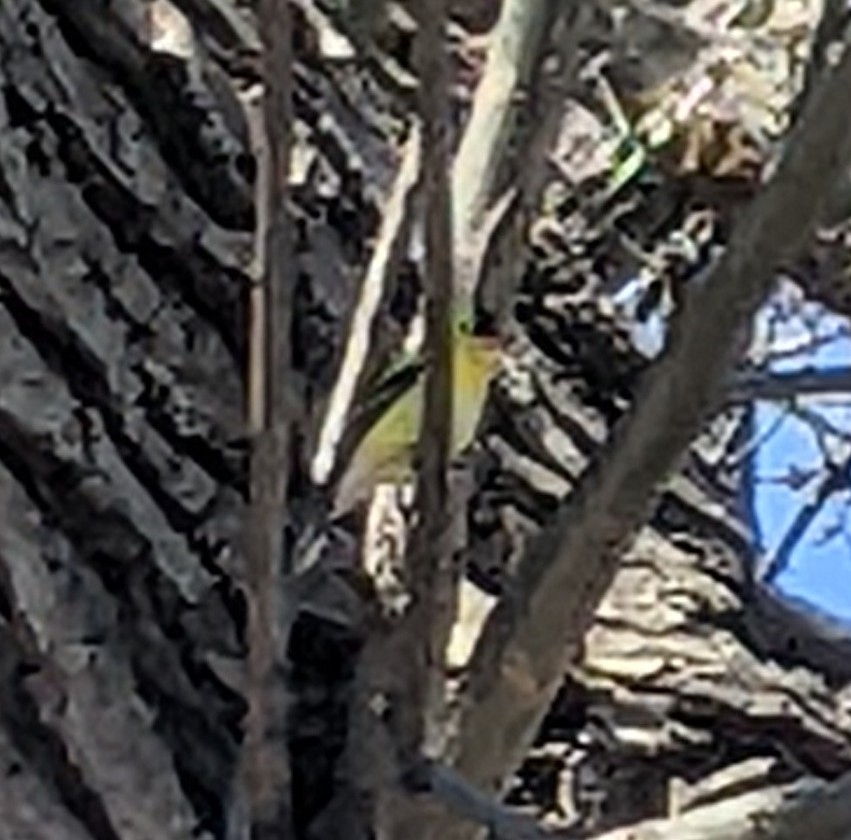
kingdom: Animalia
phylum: Chordata
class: Aves
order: Passeriformes
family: Fringillidae
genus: Spinus
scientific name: Spinus tristis
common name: American goldfinch
